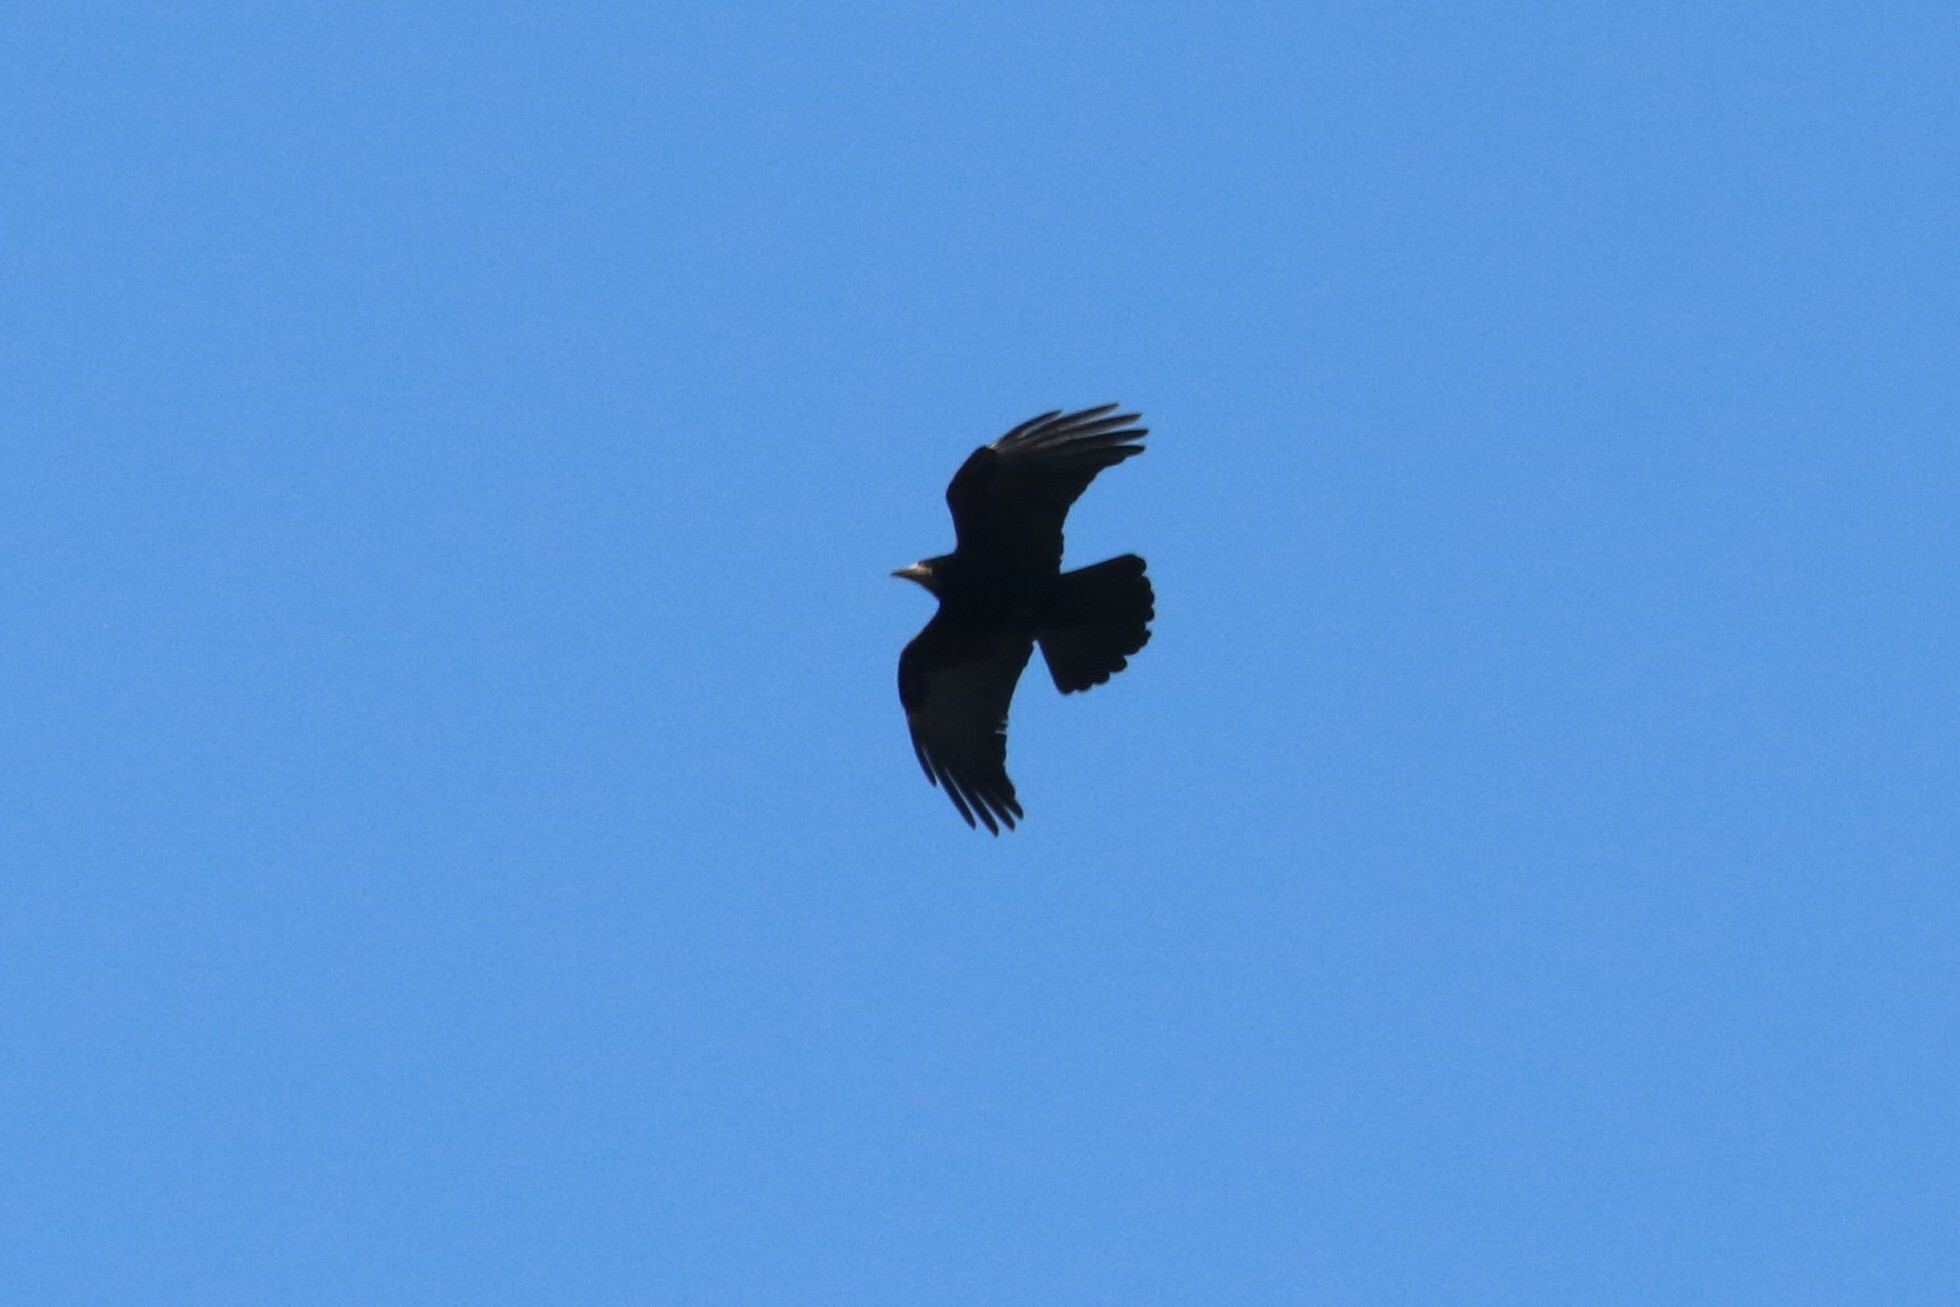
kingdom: Animalia
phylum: Chordata
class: Aves
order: Passeriformes
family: Corvidae
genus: Corvus
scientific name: Corvus frugilegus
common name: Rook
